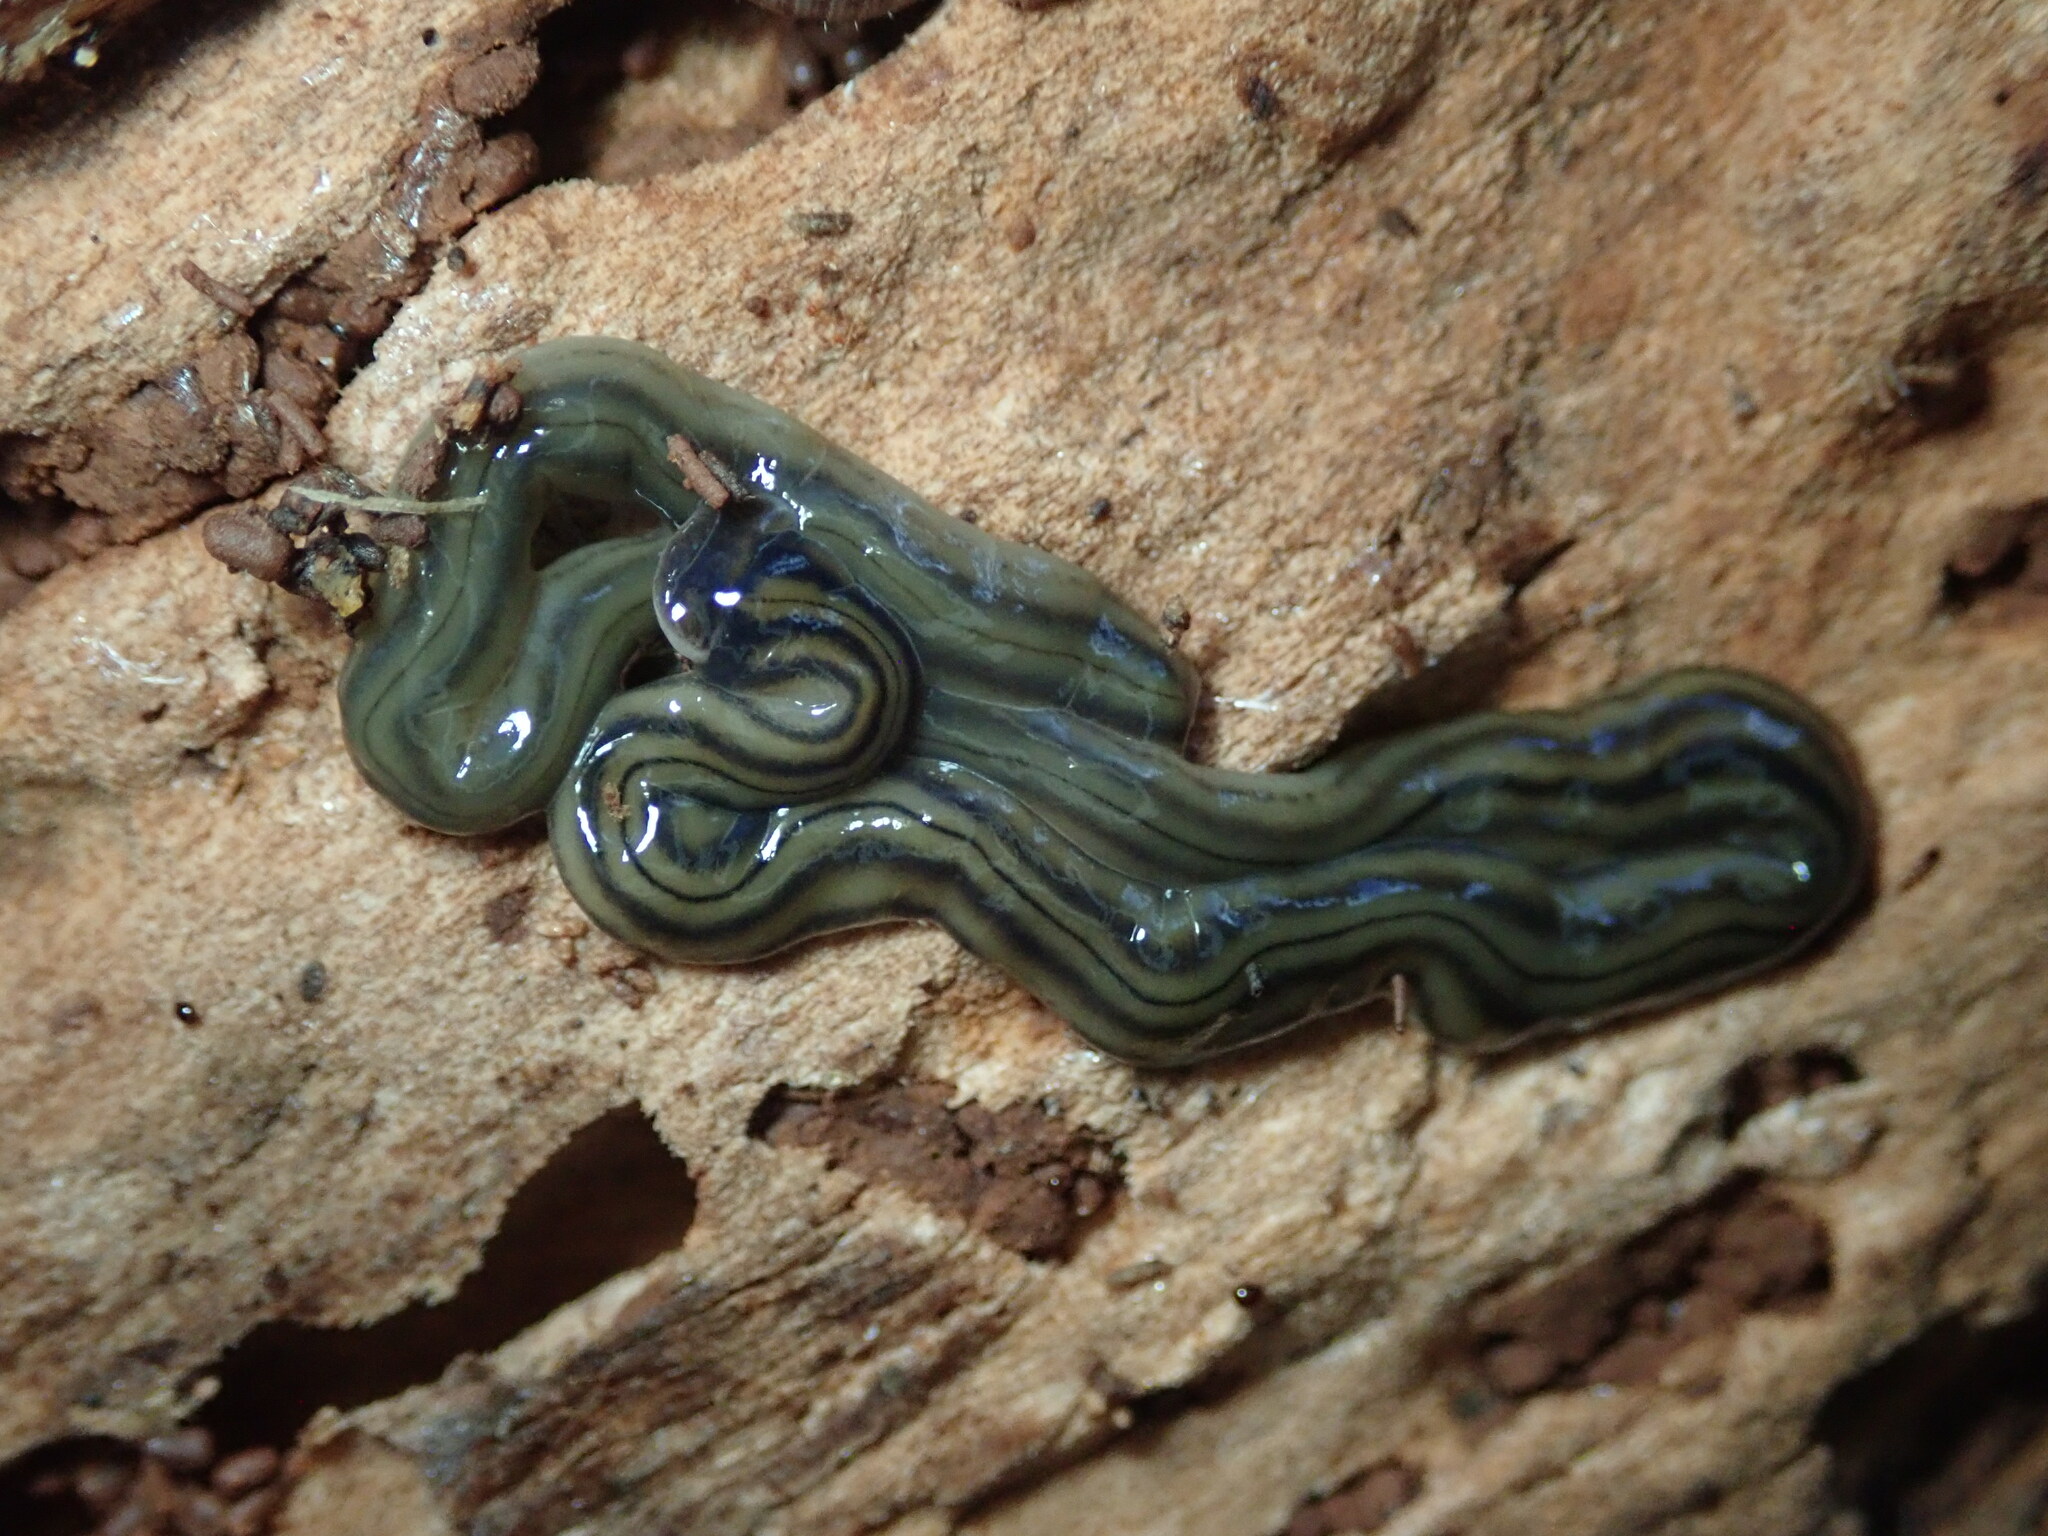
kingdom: Animalia
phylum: Platyhelminthes
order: Tricladida
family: Geoplanidae
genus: Bipalium
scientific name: Bipalium kewense
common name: Hammerhead flatworm
